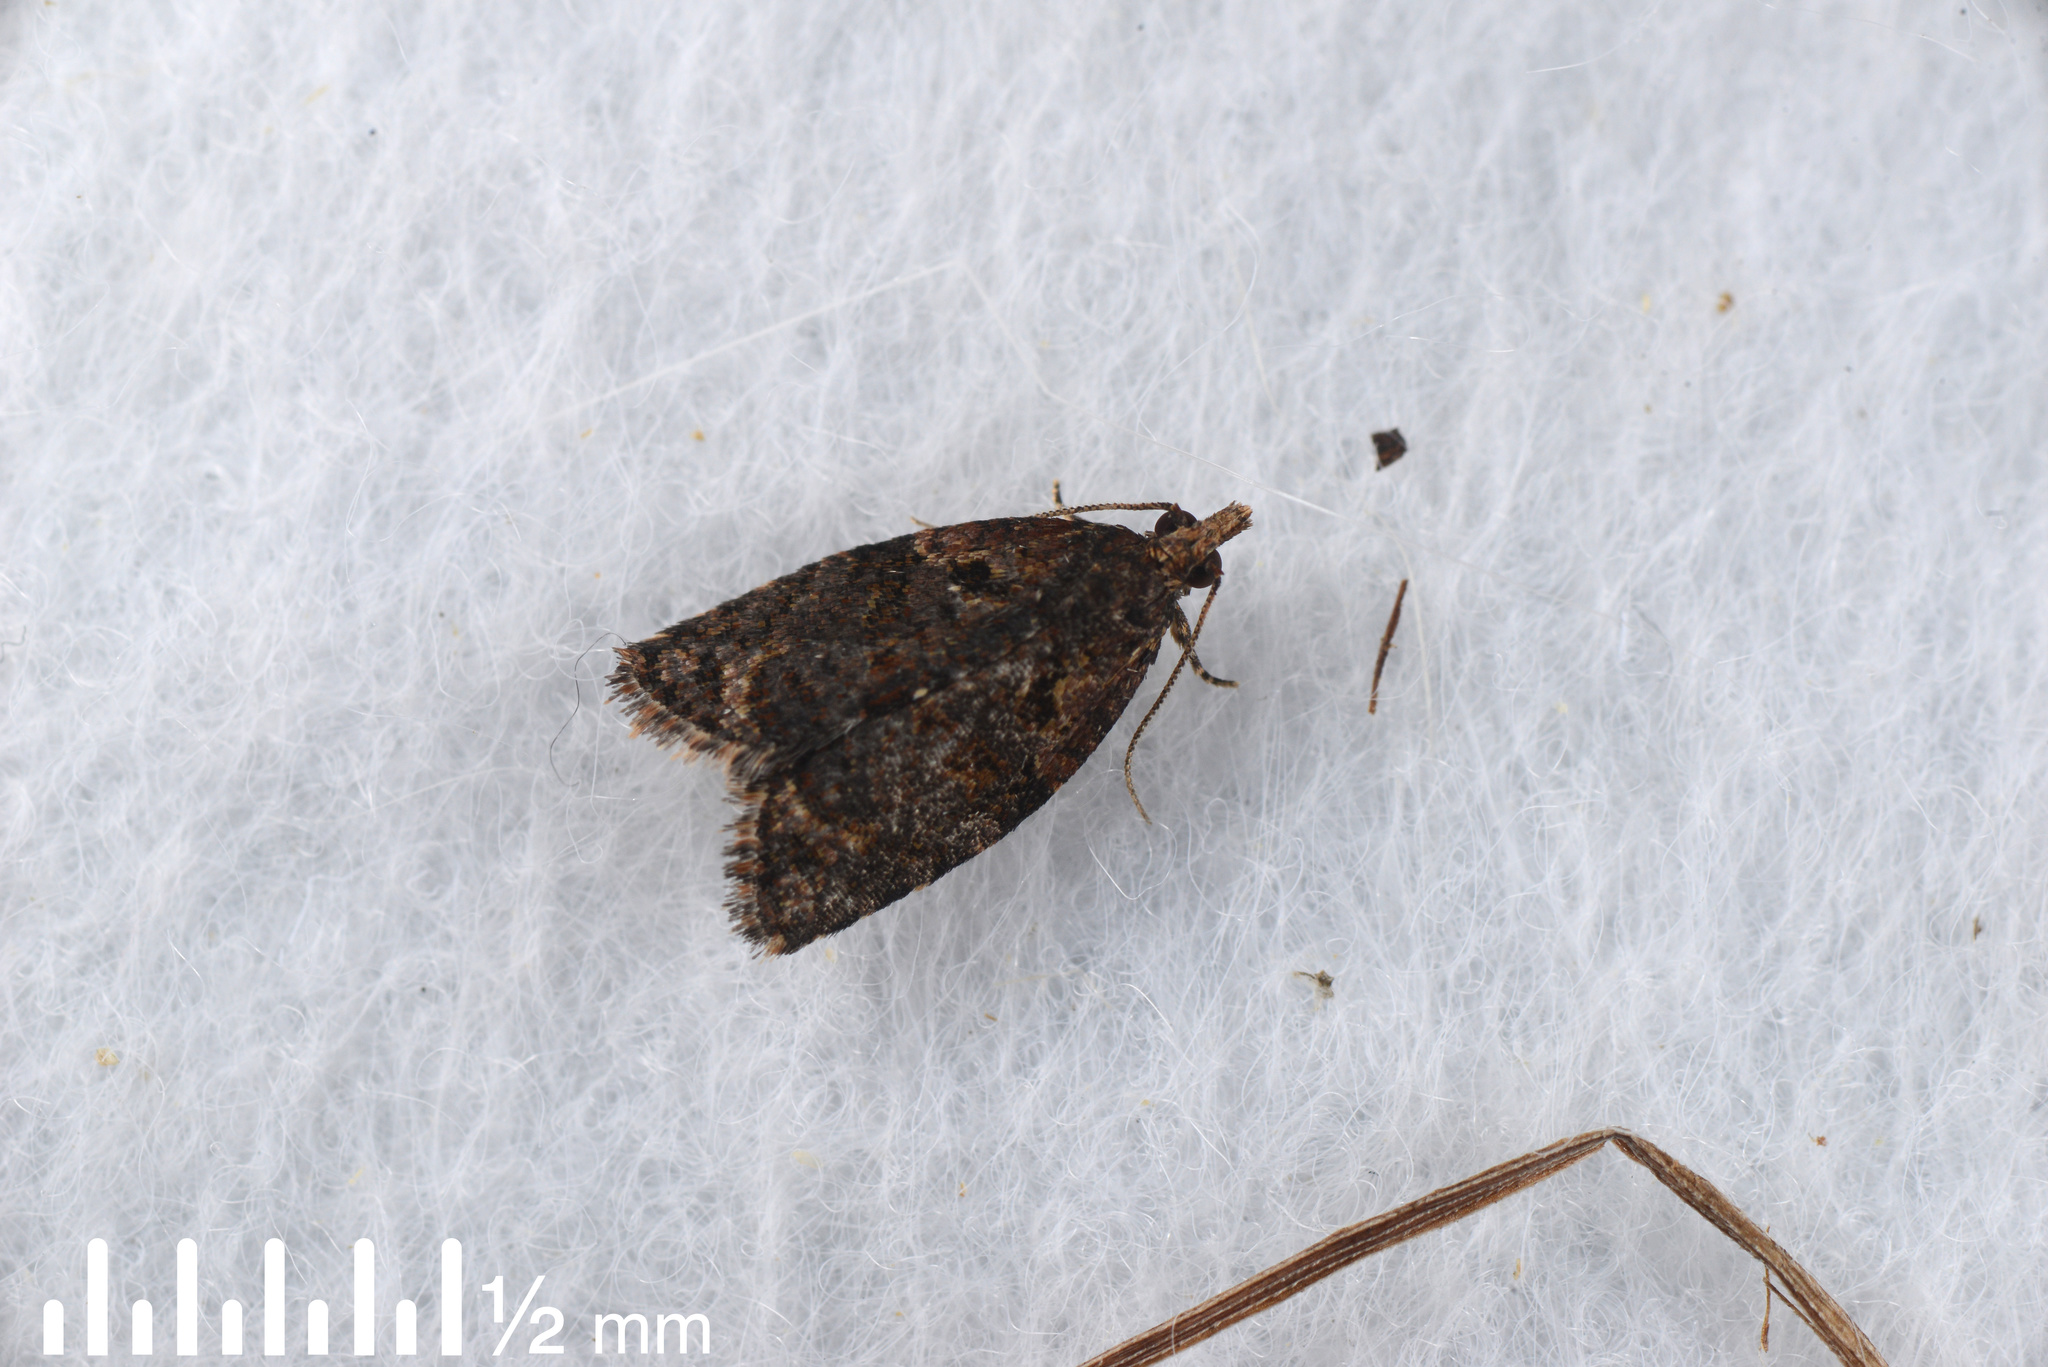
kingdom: Animalia
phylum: Arthropoda
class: Insecta
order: Lepidoptera
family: Tortricidae
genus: Capua
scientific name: Capua intractana
